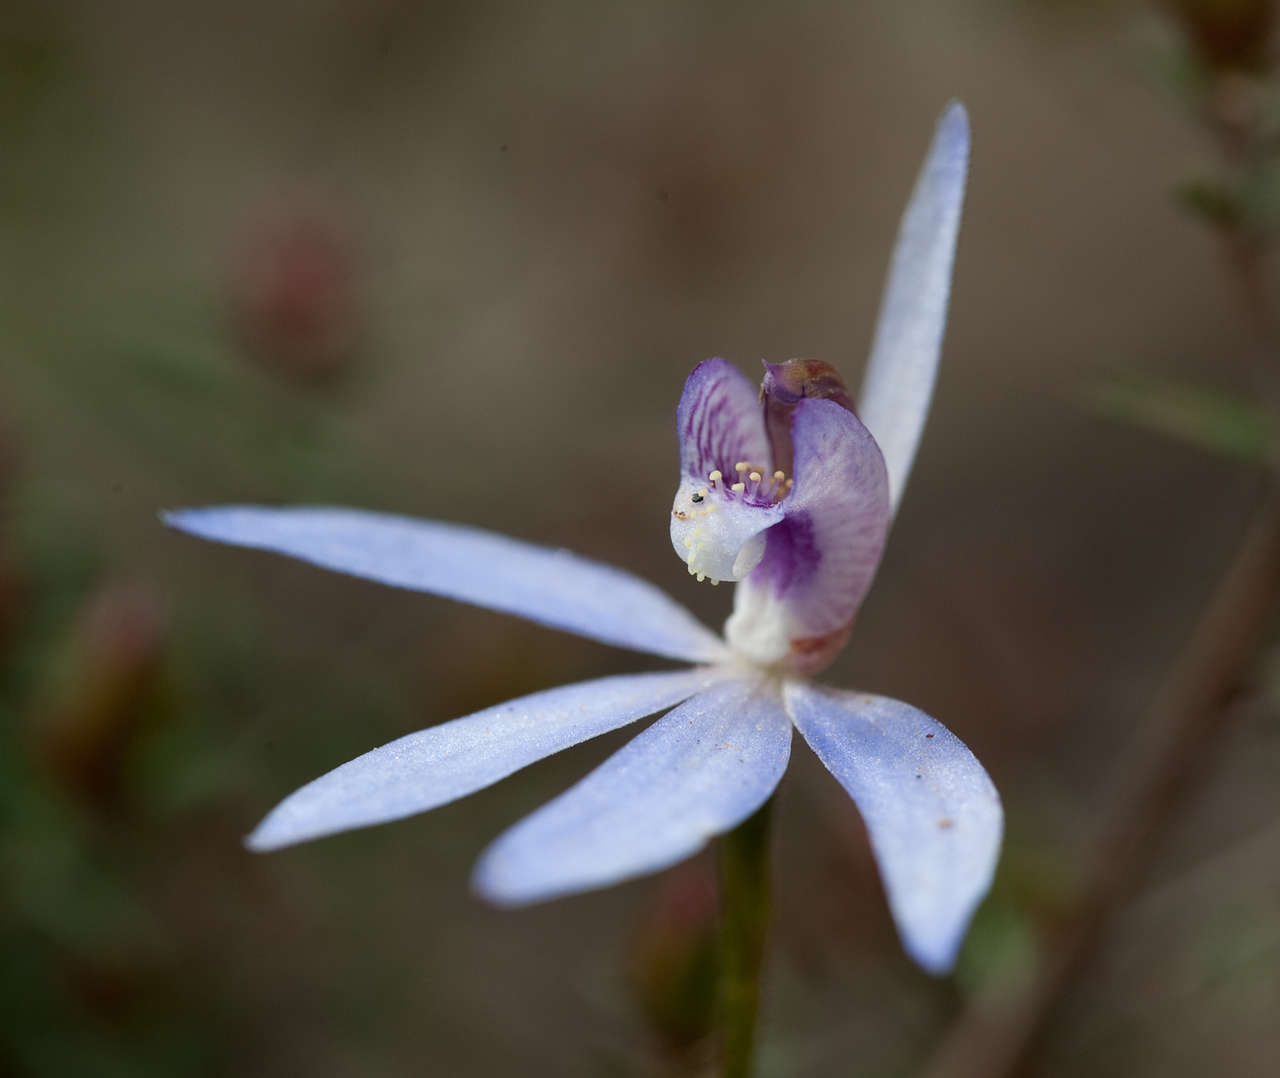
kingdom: Plantae
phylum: Tracheophyta
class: Liliopsida
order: Asparagales
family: Orchidaceae
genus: Caladenia
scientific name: Caladenia caerulea
